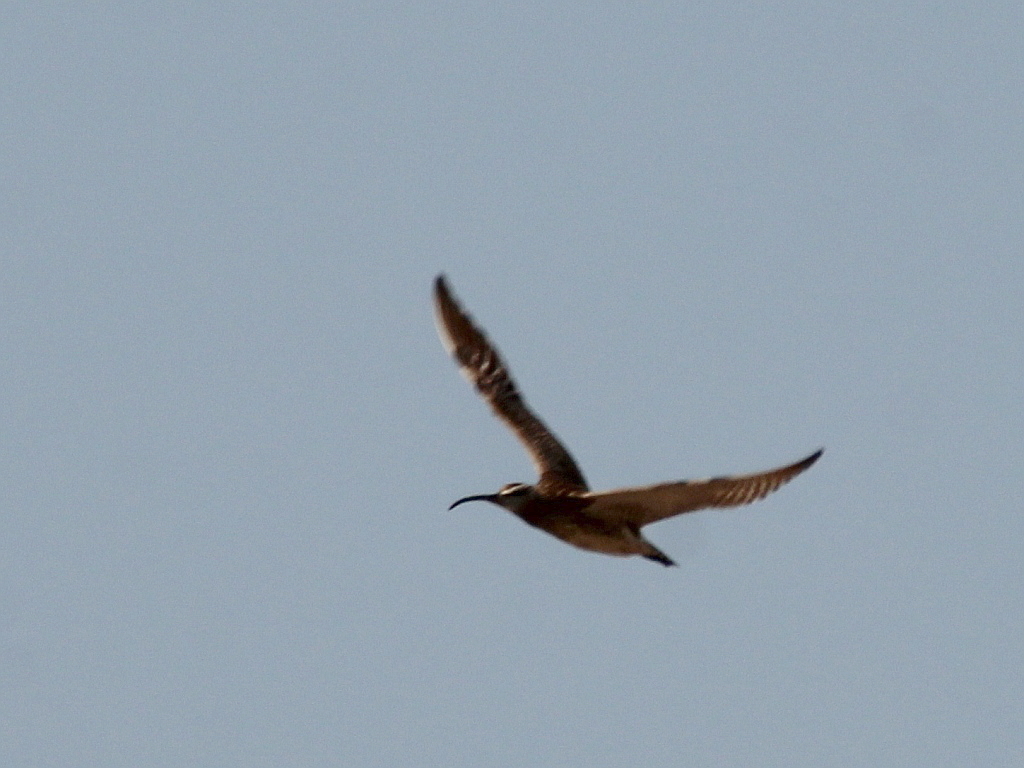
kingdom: Animalia
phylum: Chordata
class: Aves
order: Charadriiformes
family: Scolopacidae
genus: Numenius
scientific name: Numenius phaeopus
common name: Whimbrel
